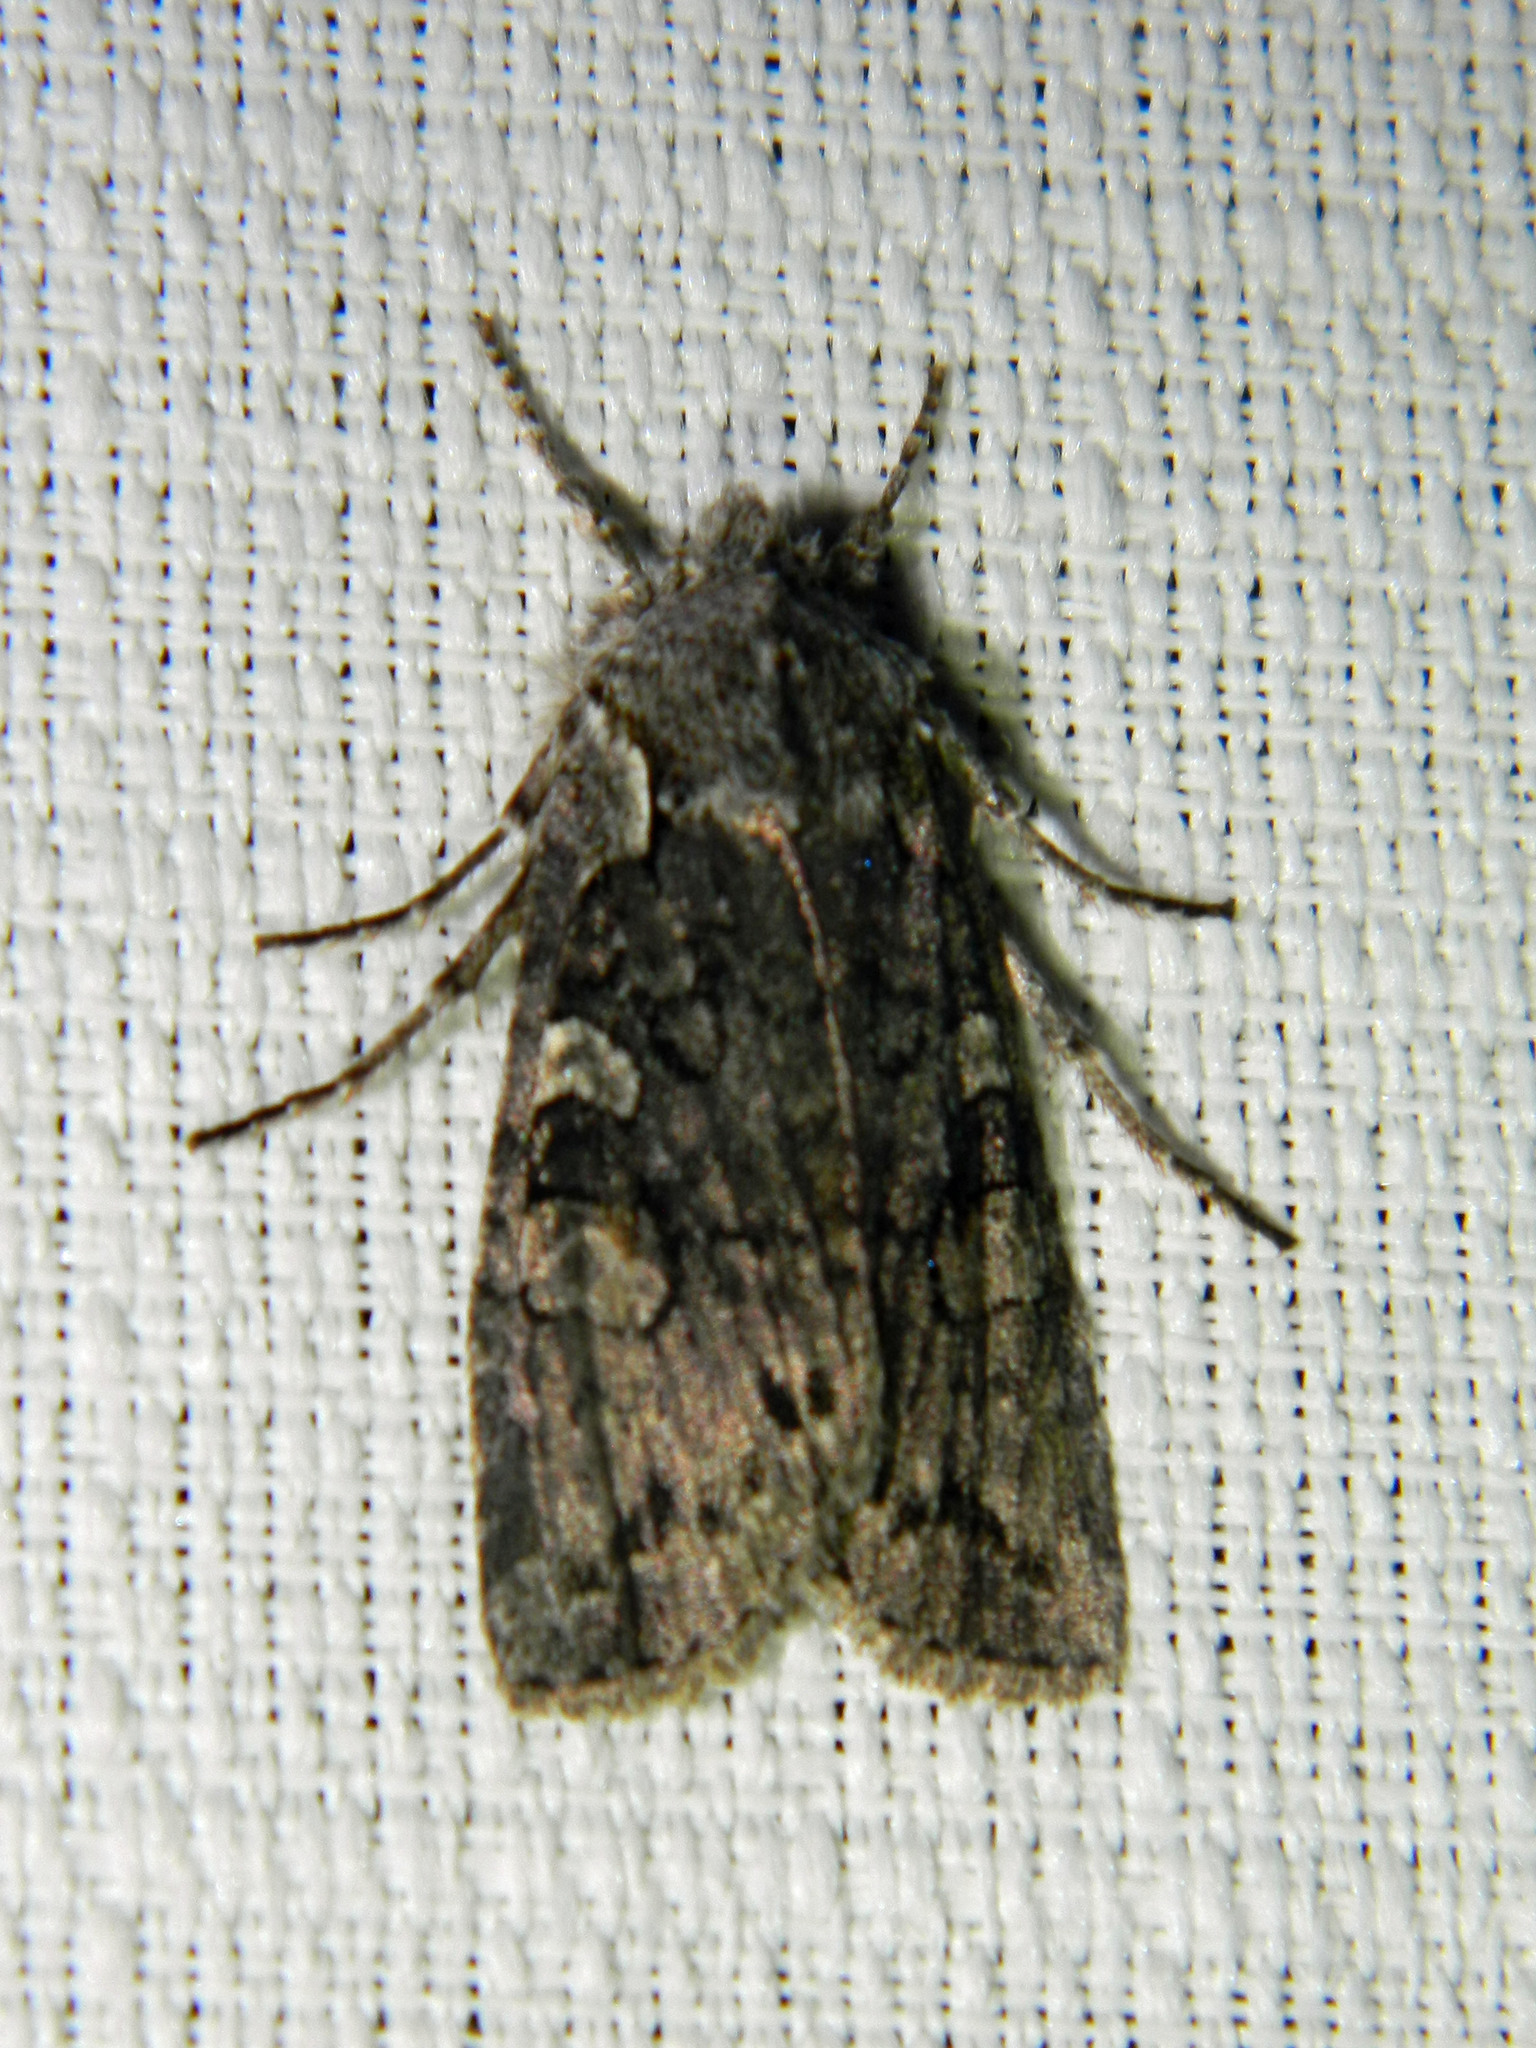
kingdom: Animalia
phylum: Arthropoda
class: Insecta
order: Lepidoptera
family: Noctuidae
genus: Lithophane
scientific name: Lithophane baileyi
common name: Bailey's pinion moth
